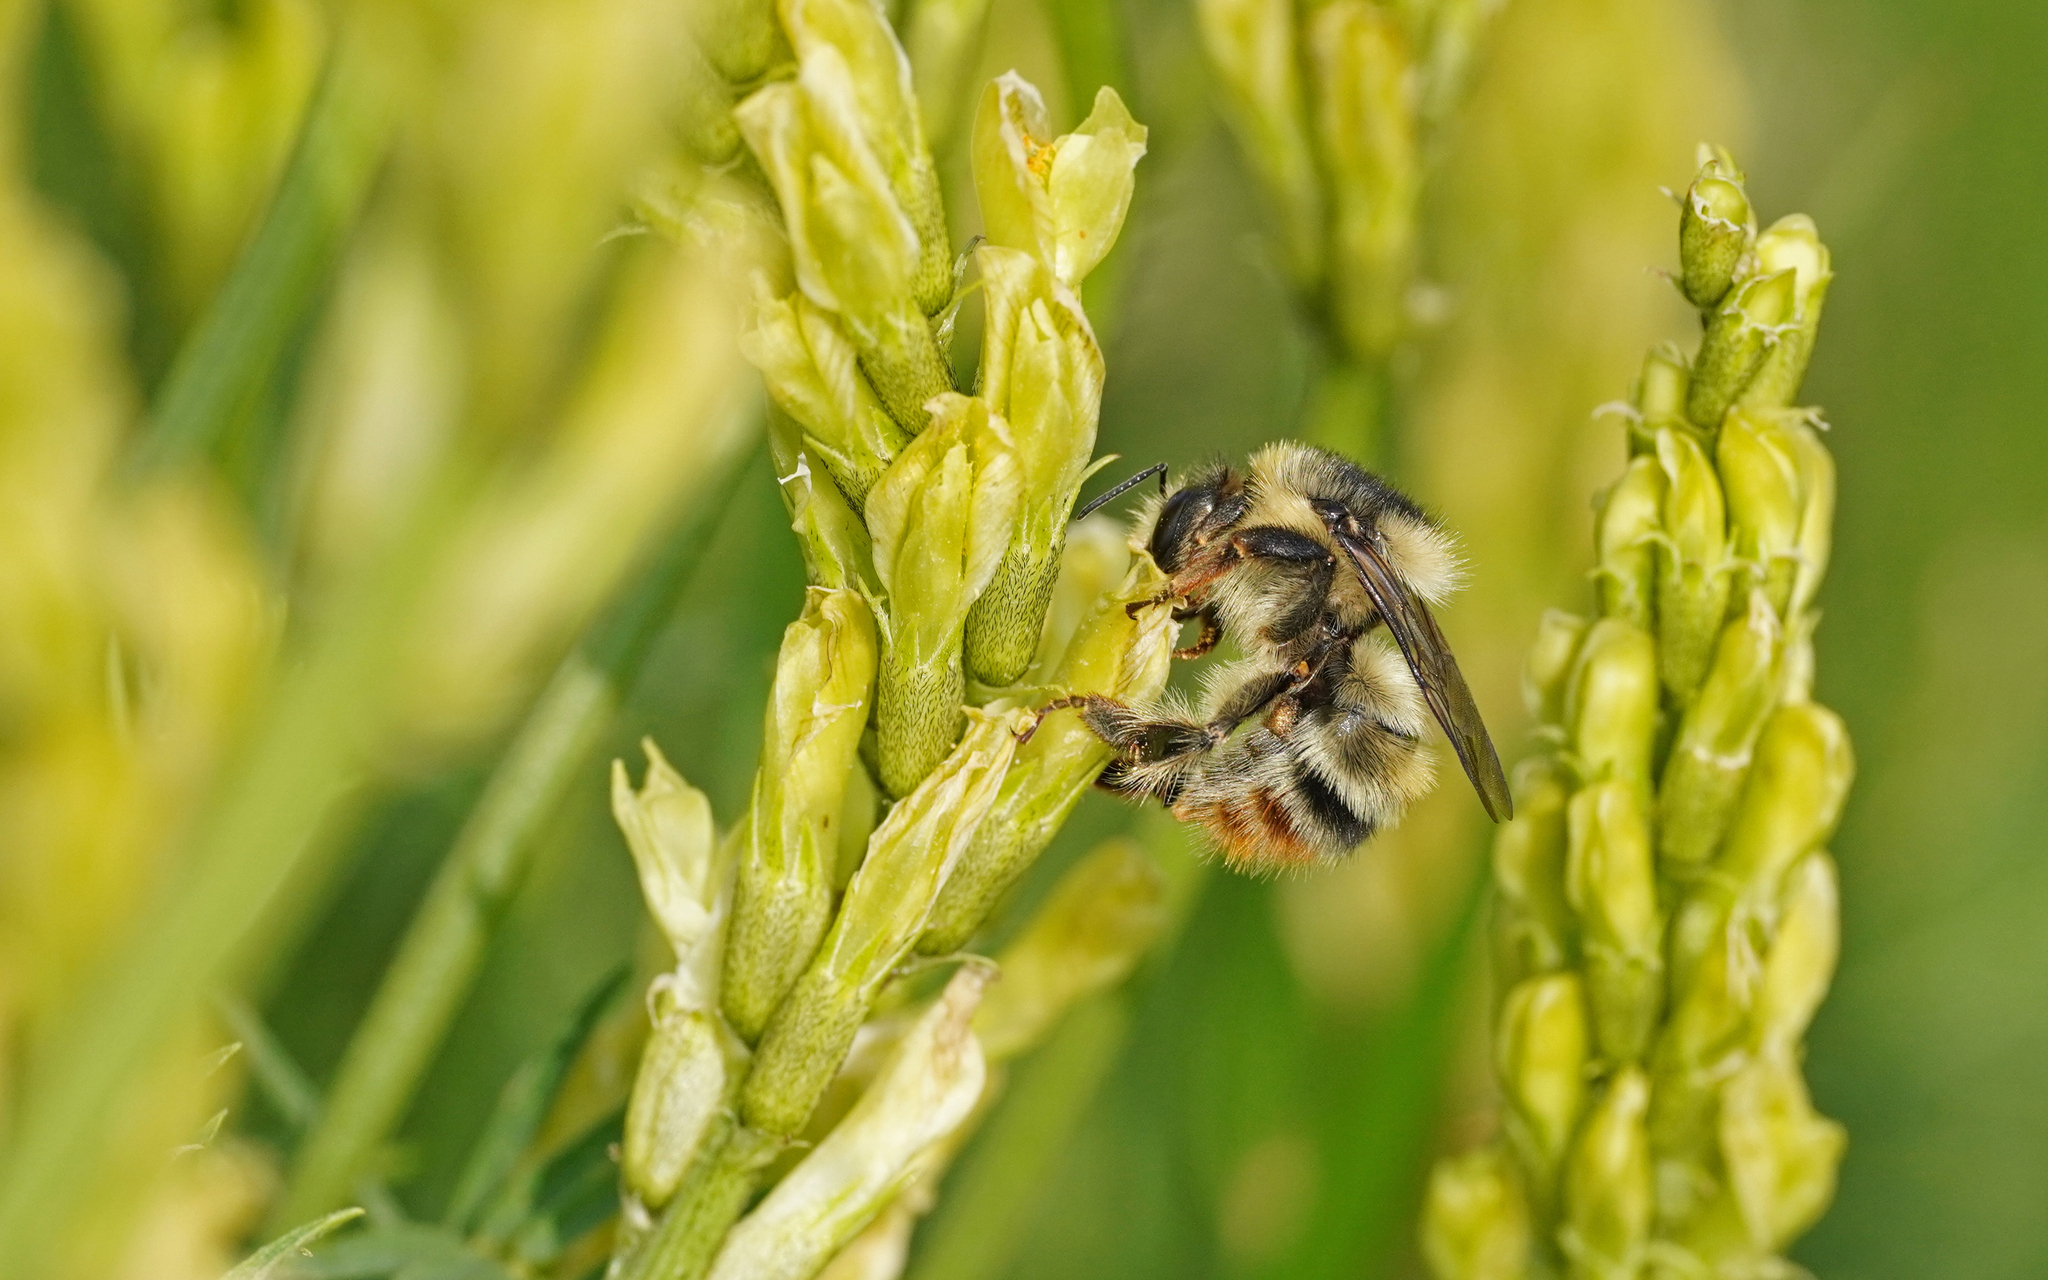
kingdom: Animalia
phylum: Arthropoda
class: Insecta
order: Hymenoptera
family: Apidae
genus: Bombus
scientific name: Bombus sylvarum
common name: Shrill carder bee
